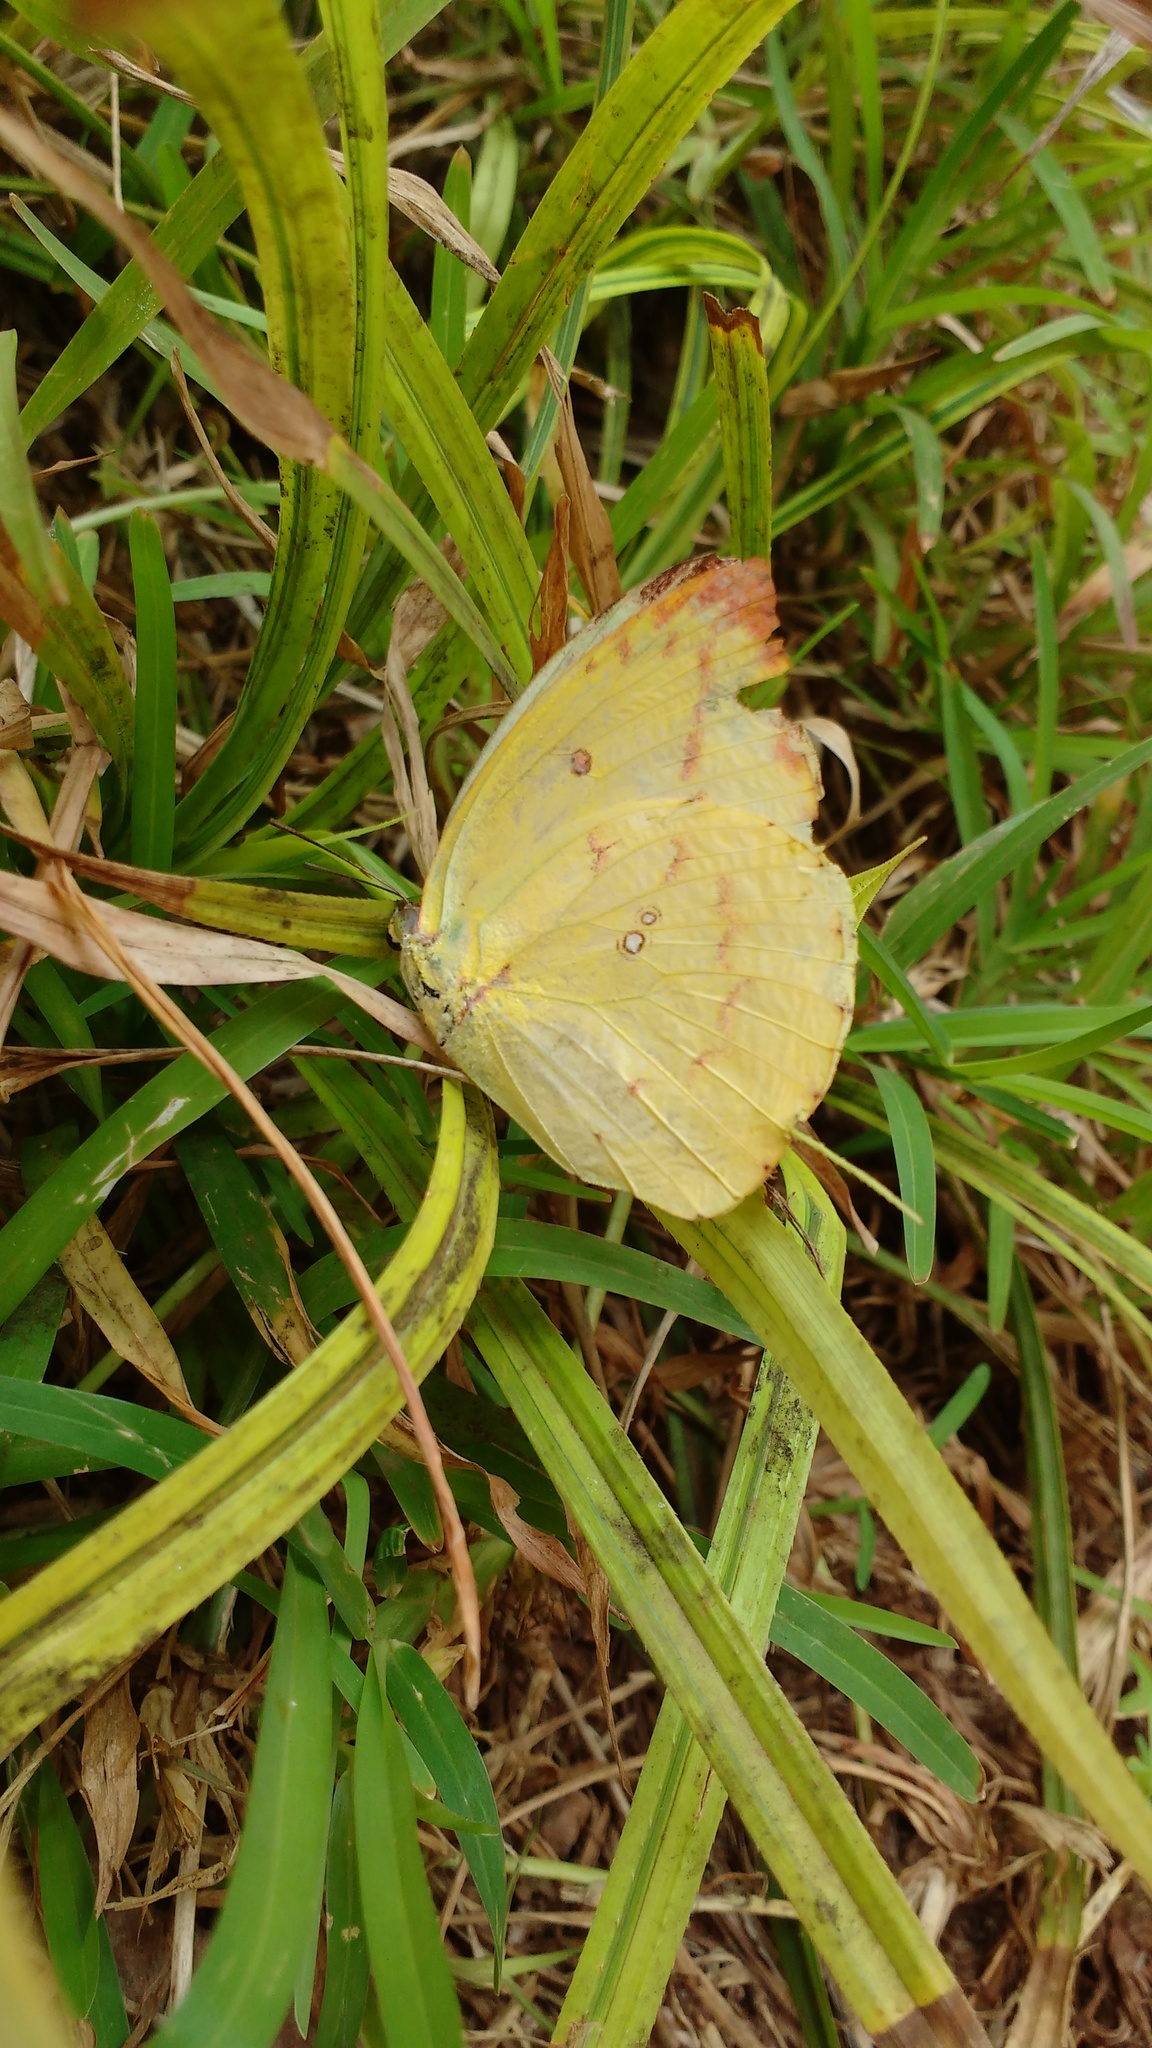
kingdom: Animalia
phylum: Arthropoda
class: Insecta
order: Lepidoptera
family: Pieridae
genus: Catopsilia
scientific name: Catopsilia pomona
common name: Common emigrant
